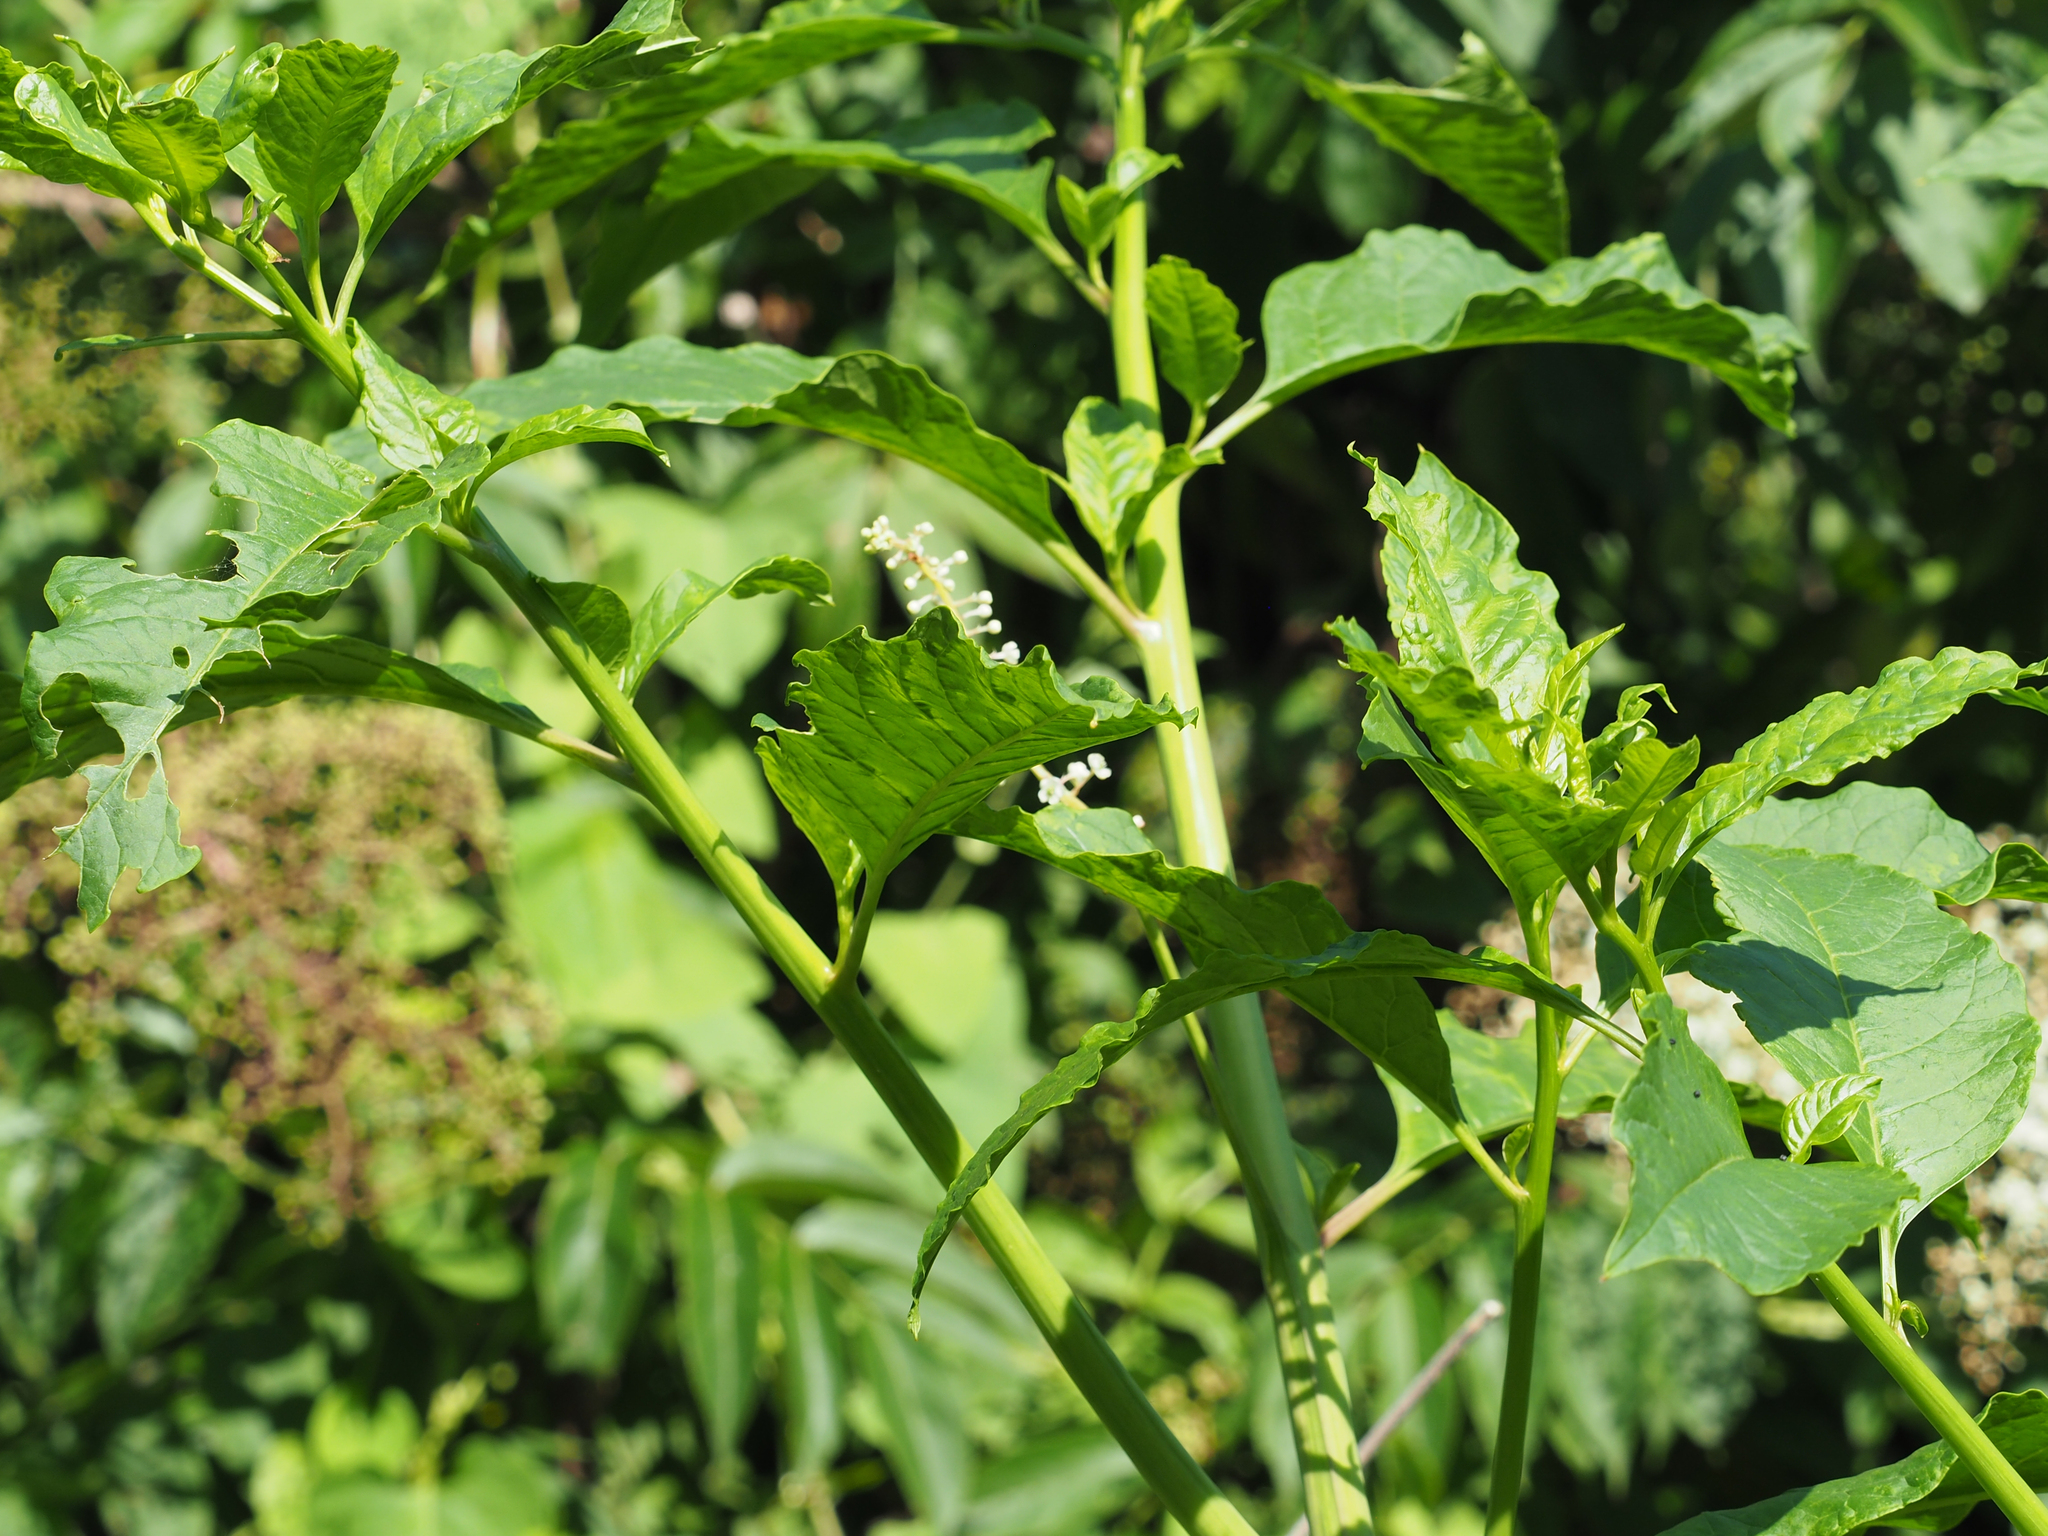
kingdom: Viruses
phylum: Pisuviricota
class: Stelpaviricetes
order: Patatavirales
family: Potyviridae
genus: Potyvirus
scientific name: Potyvirus Pokeweed mosaic virus
